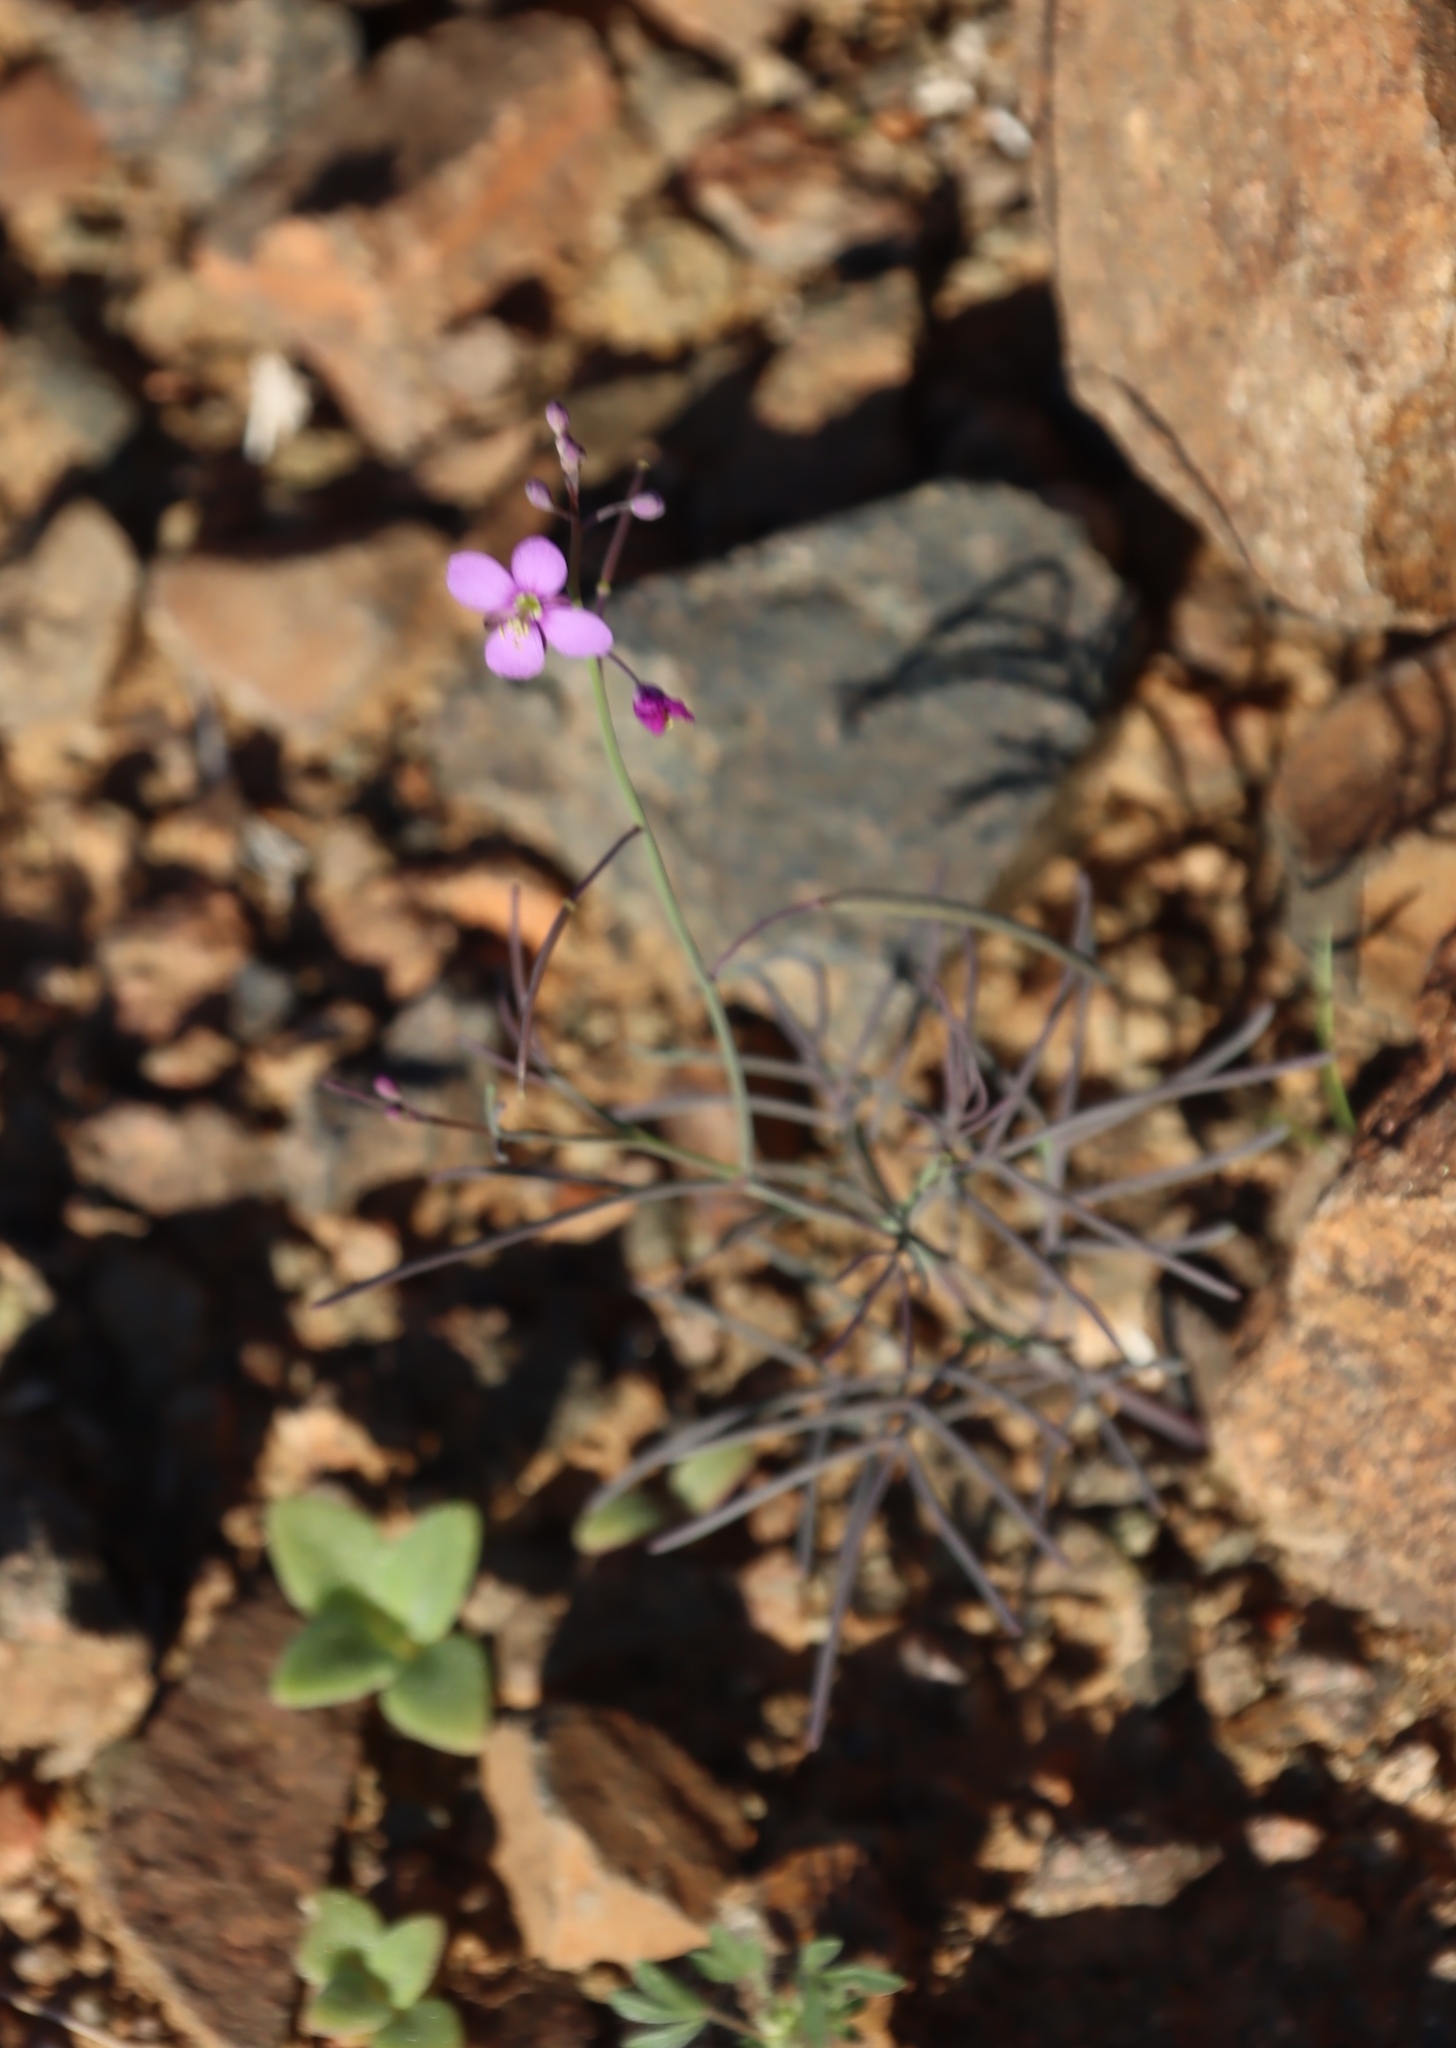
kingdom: Plantae
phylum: Tracheophyta
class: Magnoliopsida
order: Brassicales
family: Brassicaceae
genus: Heliophila
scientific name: Heliophila deserticola
